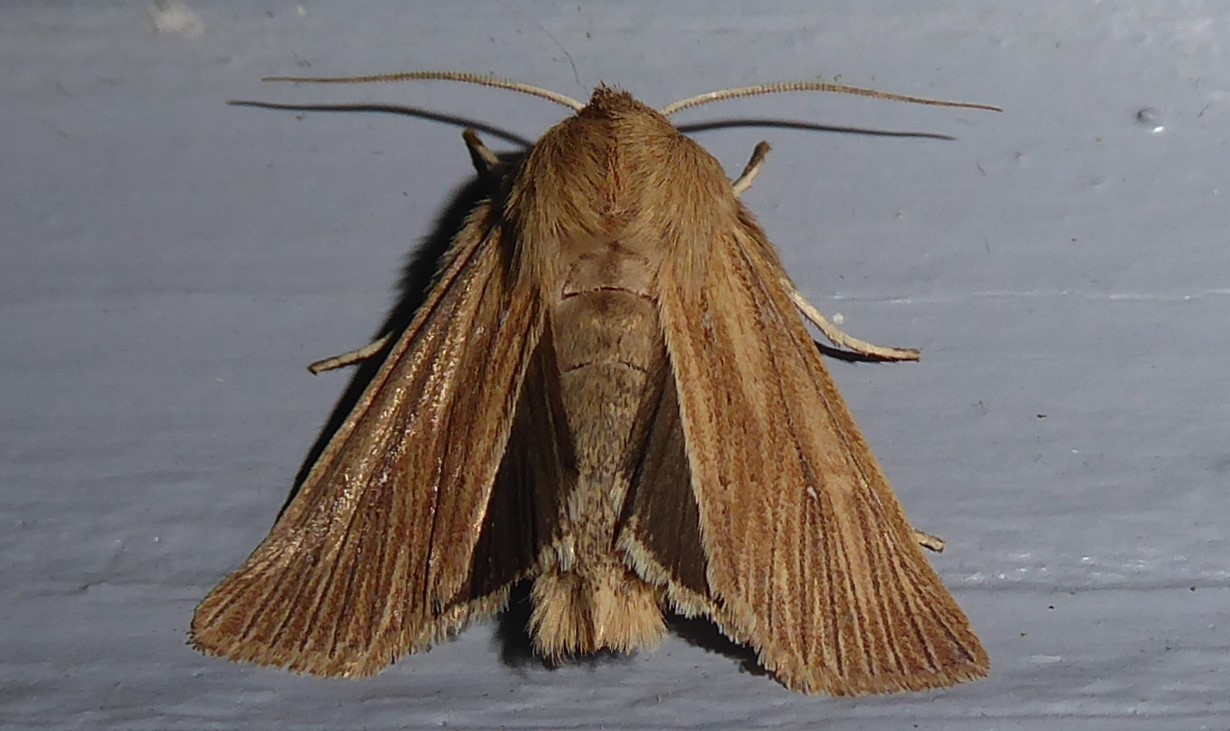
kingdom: Animalia
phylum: Arthropoda
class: Insecta
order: Lepidoptera
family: Noctuidae
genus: Ichneutica
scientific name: Ichneutica arotis
